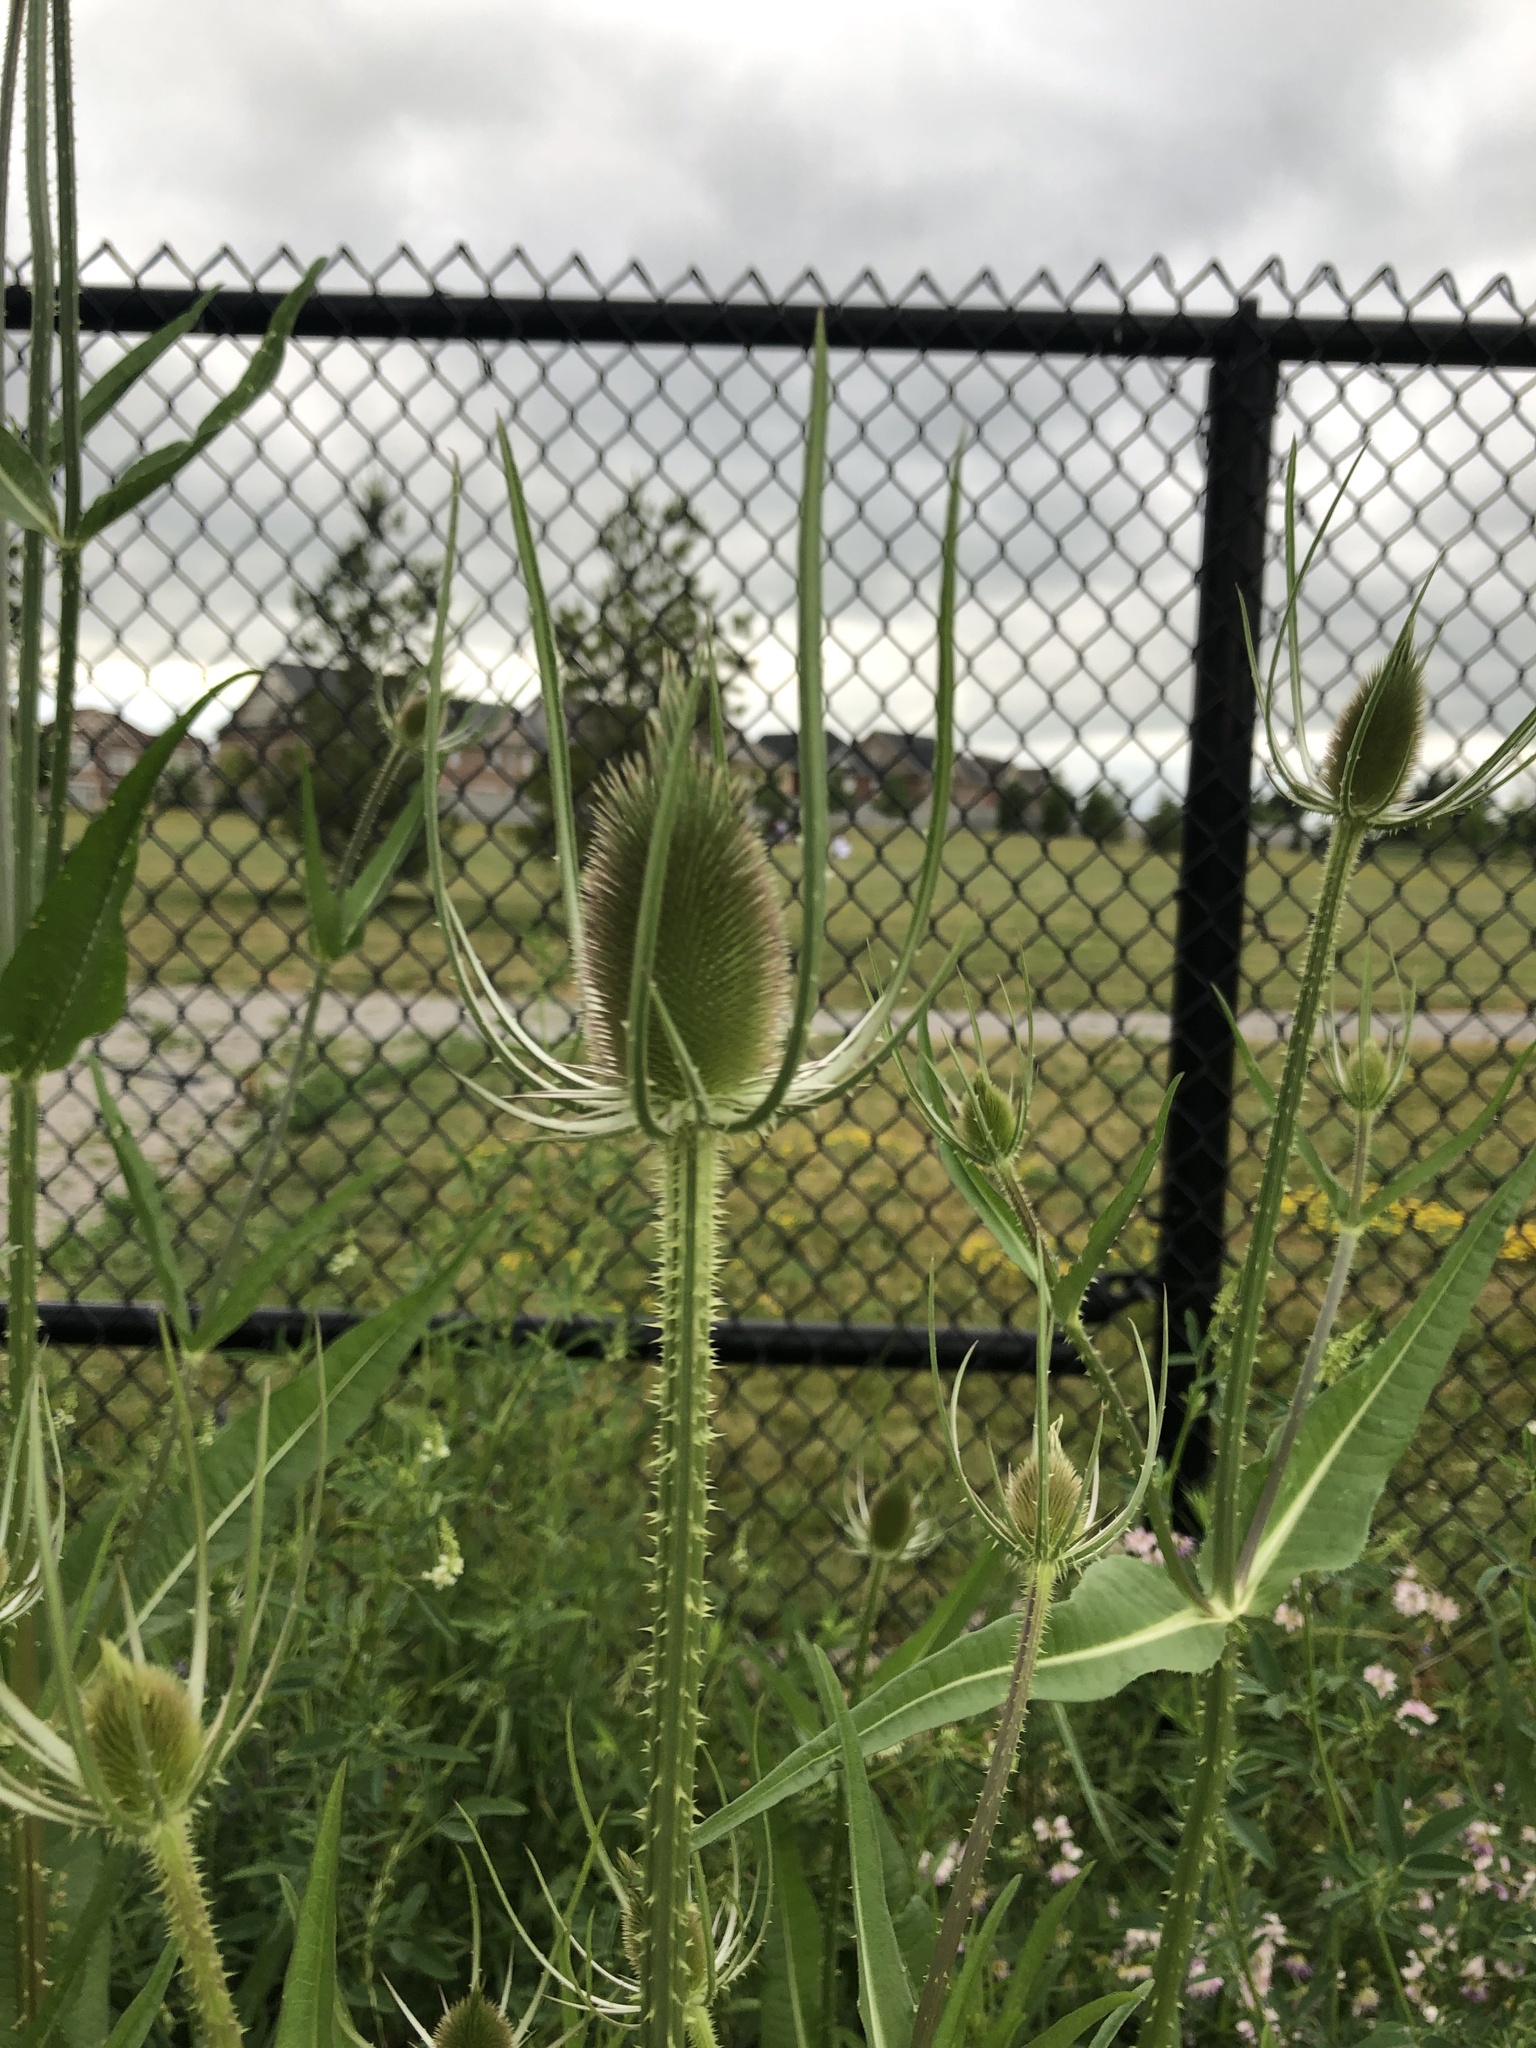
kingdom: Plantae
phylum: Tracheophyta
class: Magnoliopsida
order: Dipsacales
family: Caprifoliaceae
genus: Dipsacus
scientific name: Dipsacus fullonum
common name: Teasel
